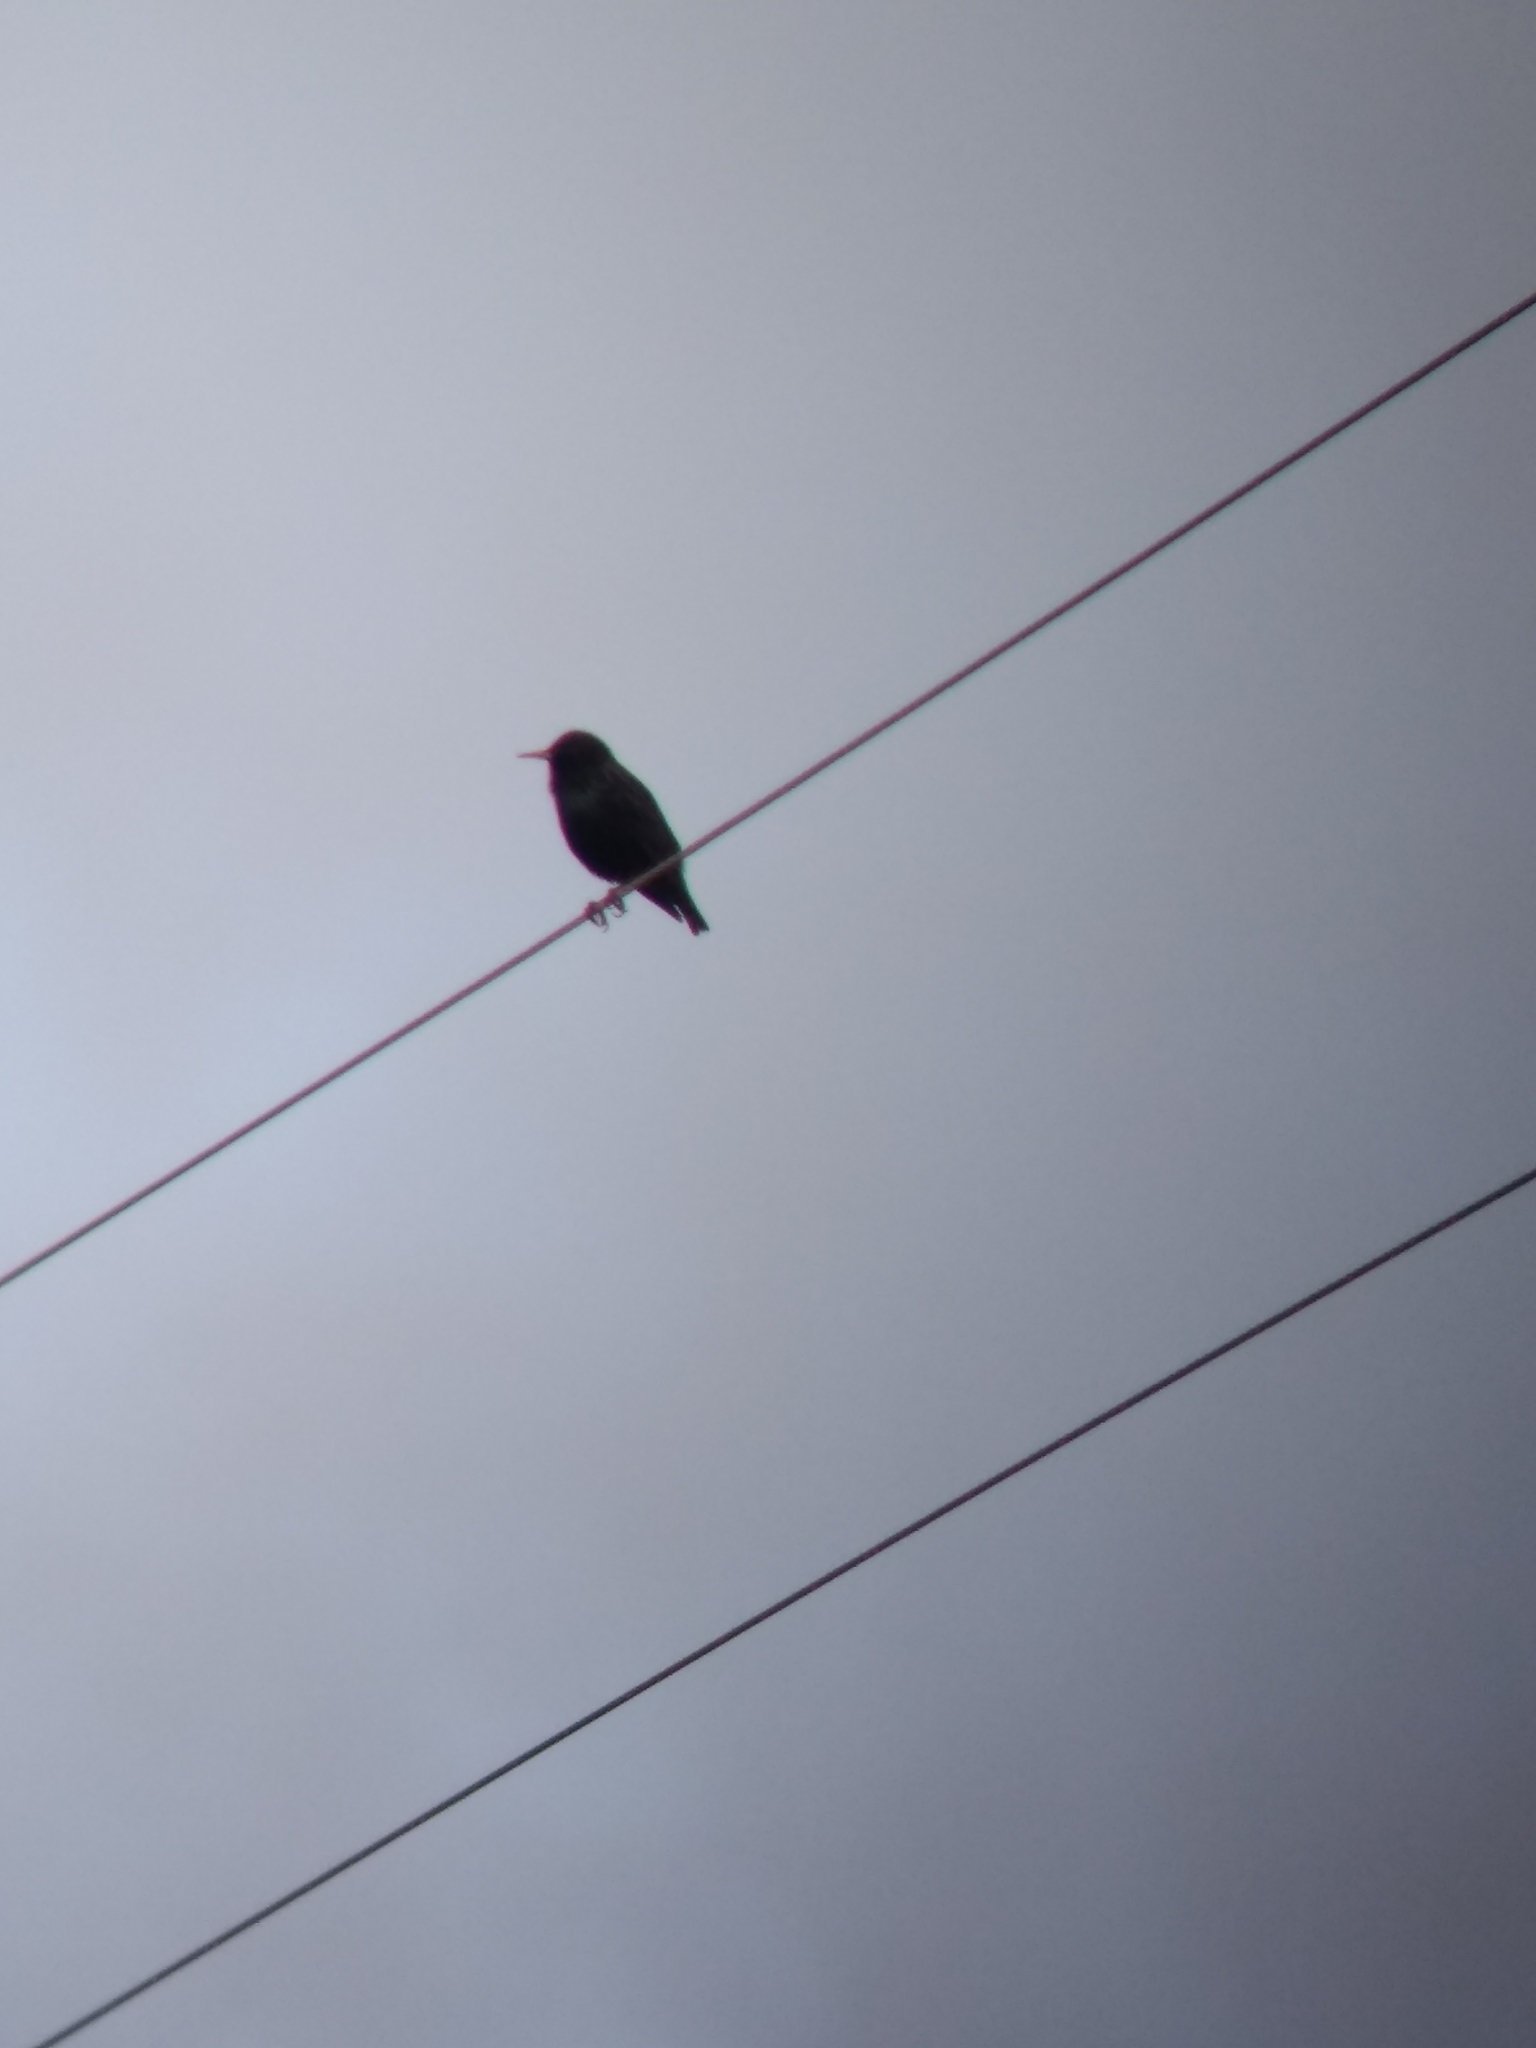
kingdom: Animalia
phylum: Chordata
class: Aves
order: Passeriformes
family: Sturnidae
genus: Sturnus
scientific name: Sturnus vulgaris
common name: Common starling
